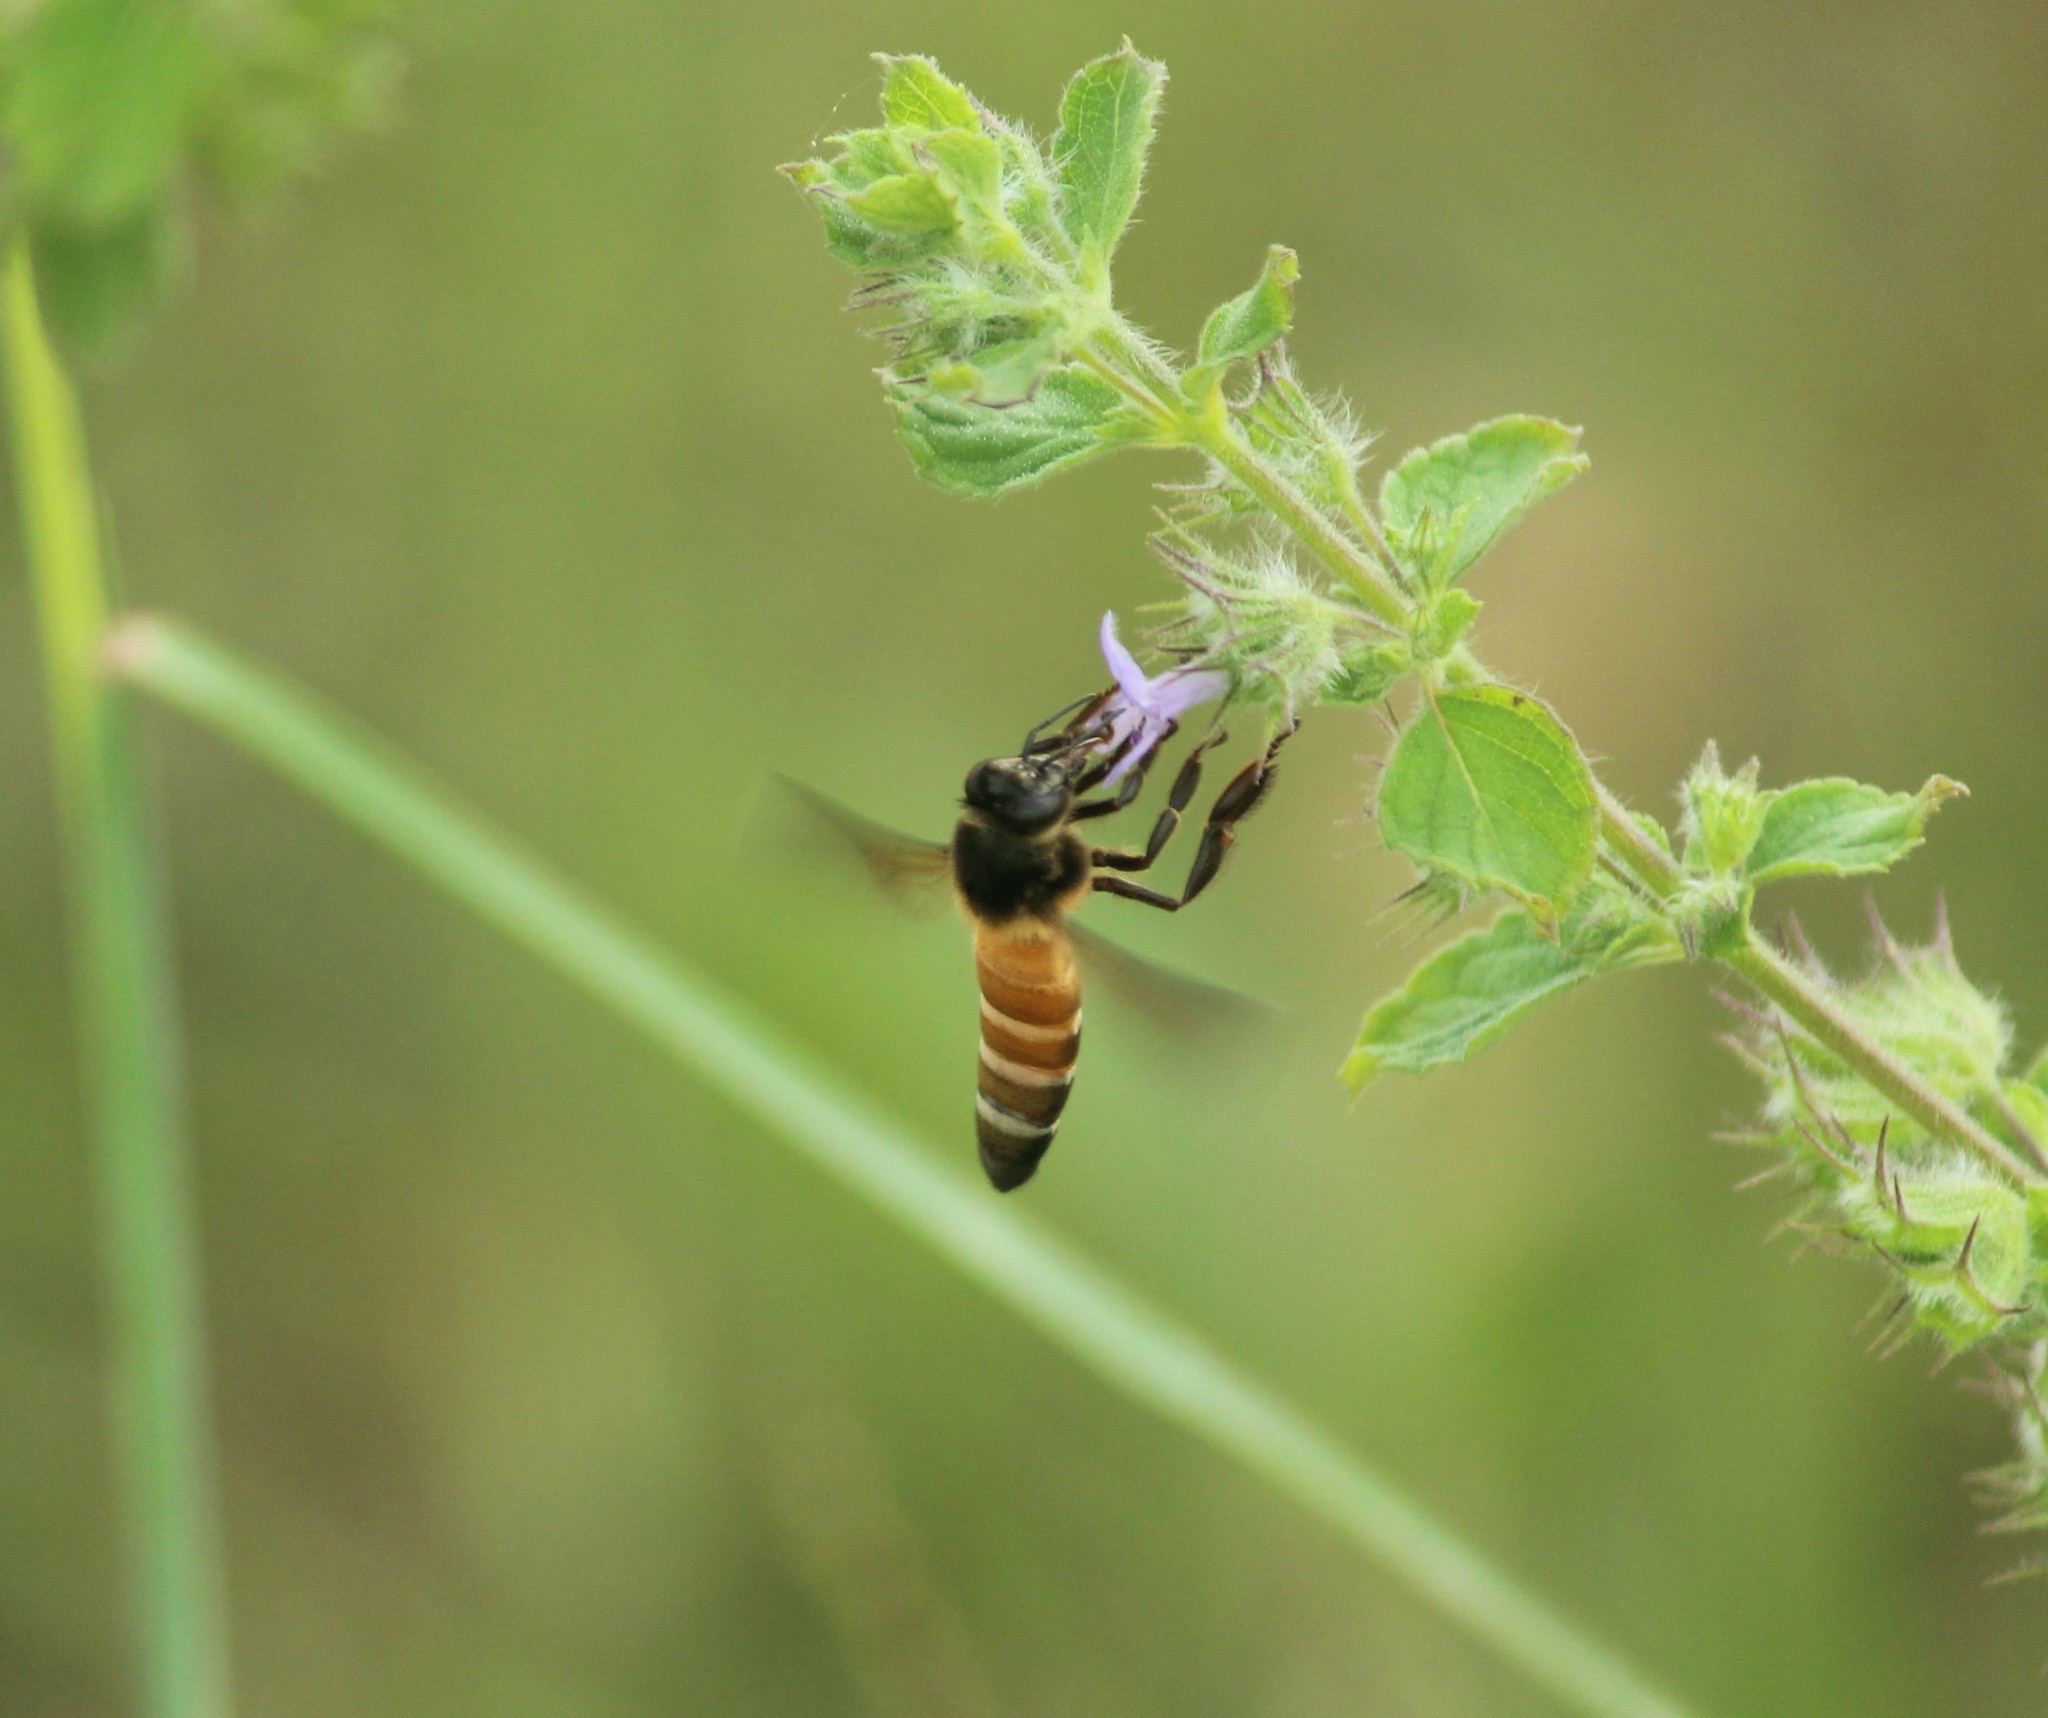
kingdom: Animalia
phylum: Arthropoda
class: Insecta
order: Hymenoptera
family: Apidae
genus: Apis
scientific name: Apis dorsata
